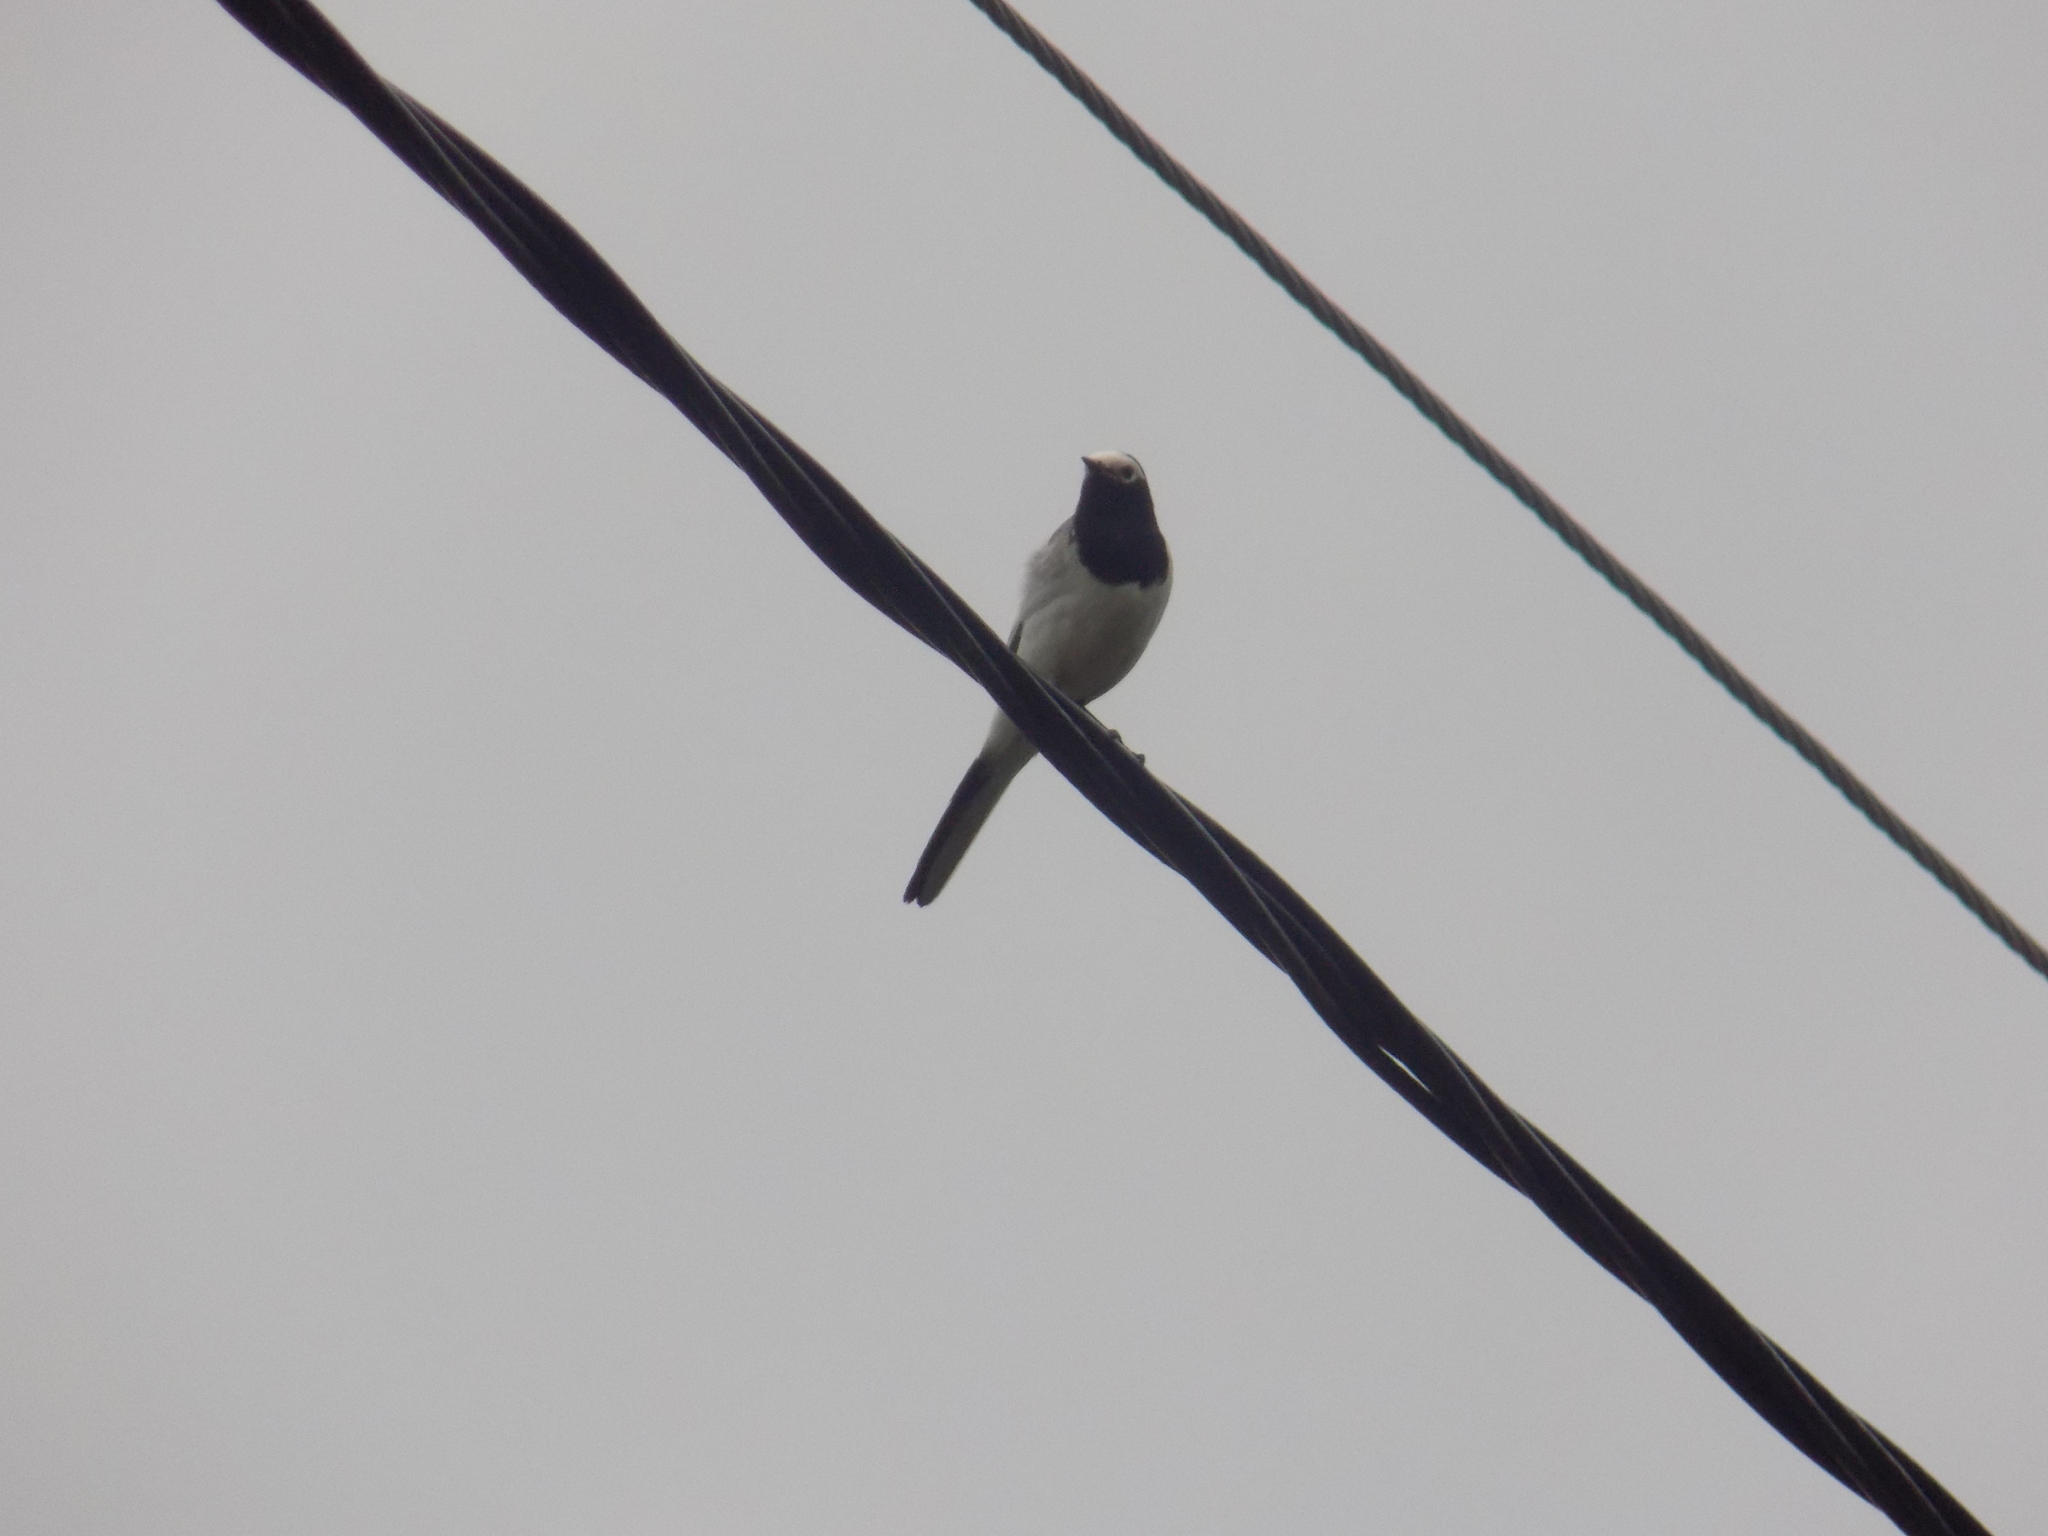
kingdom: Animalia
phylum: Chordata
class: Aves
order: Passeriformes
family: Motacillidae
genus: Motacilla
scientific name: Motacilla alba
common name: White wagtail
